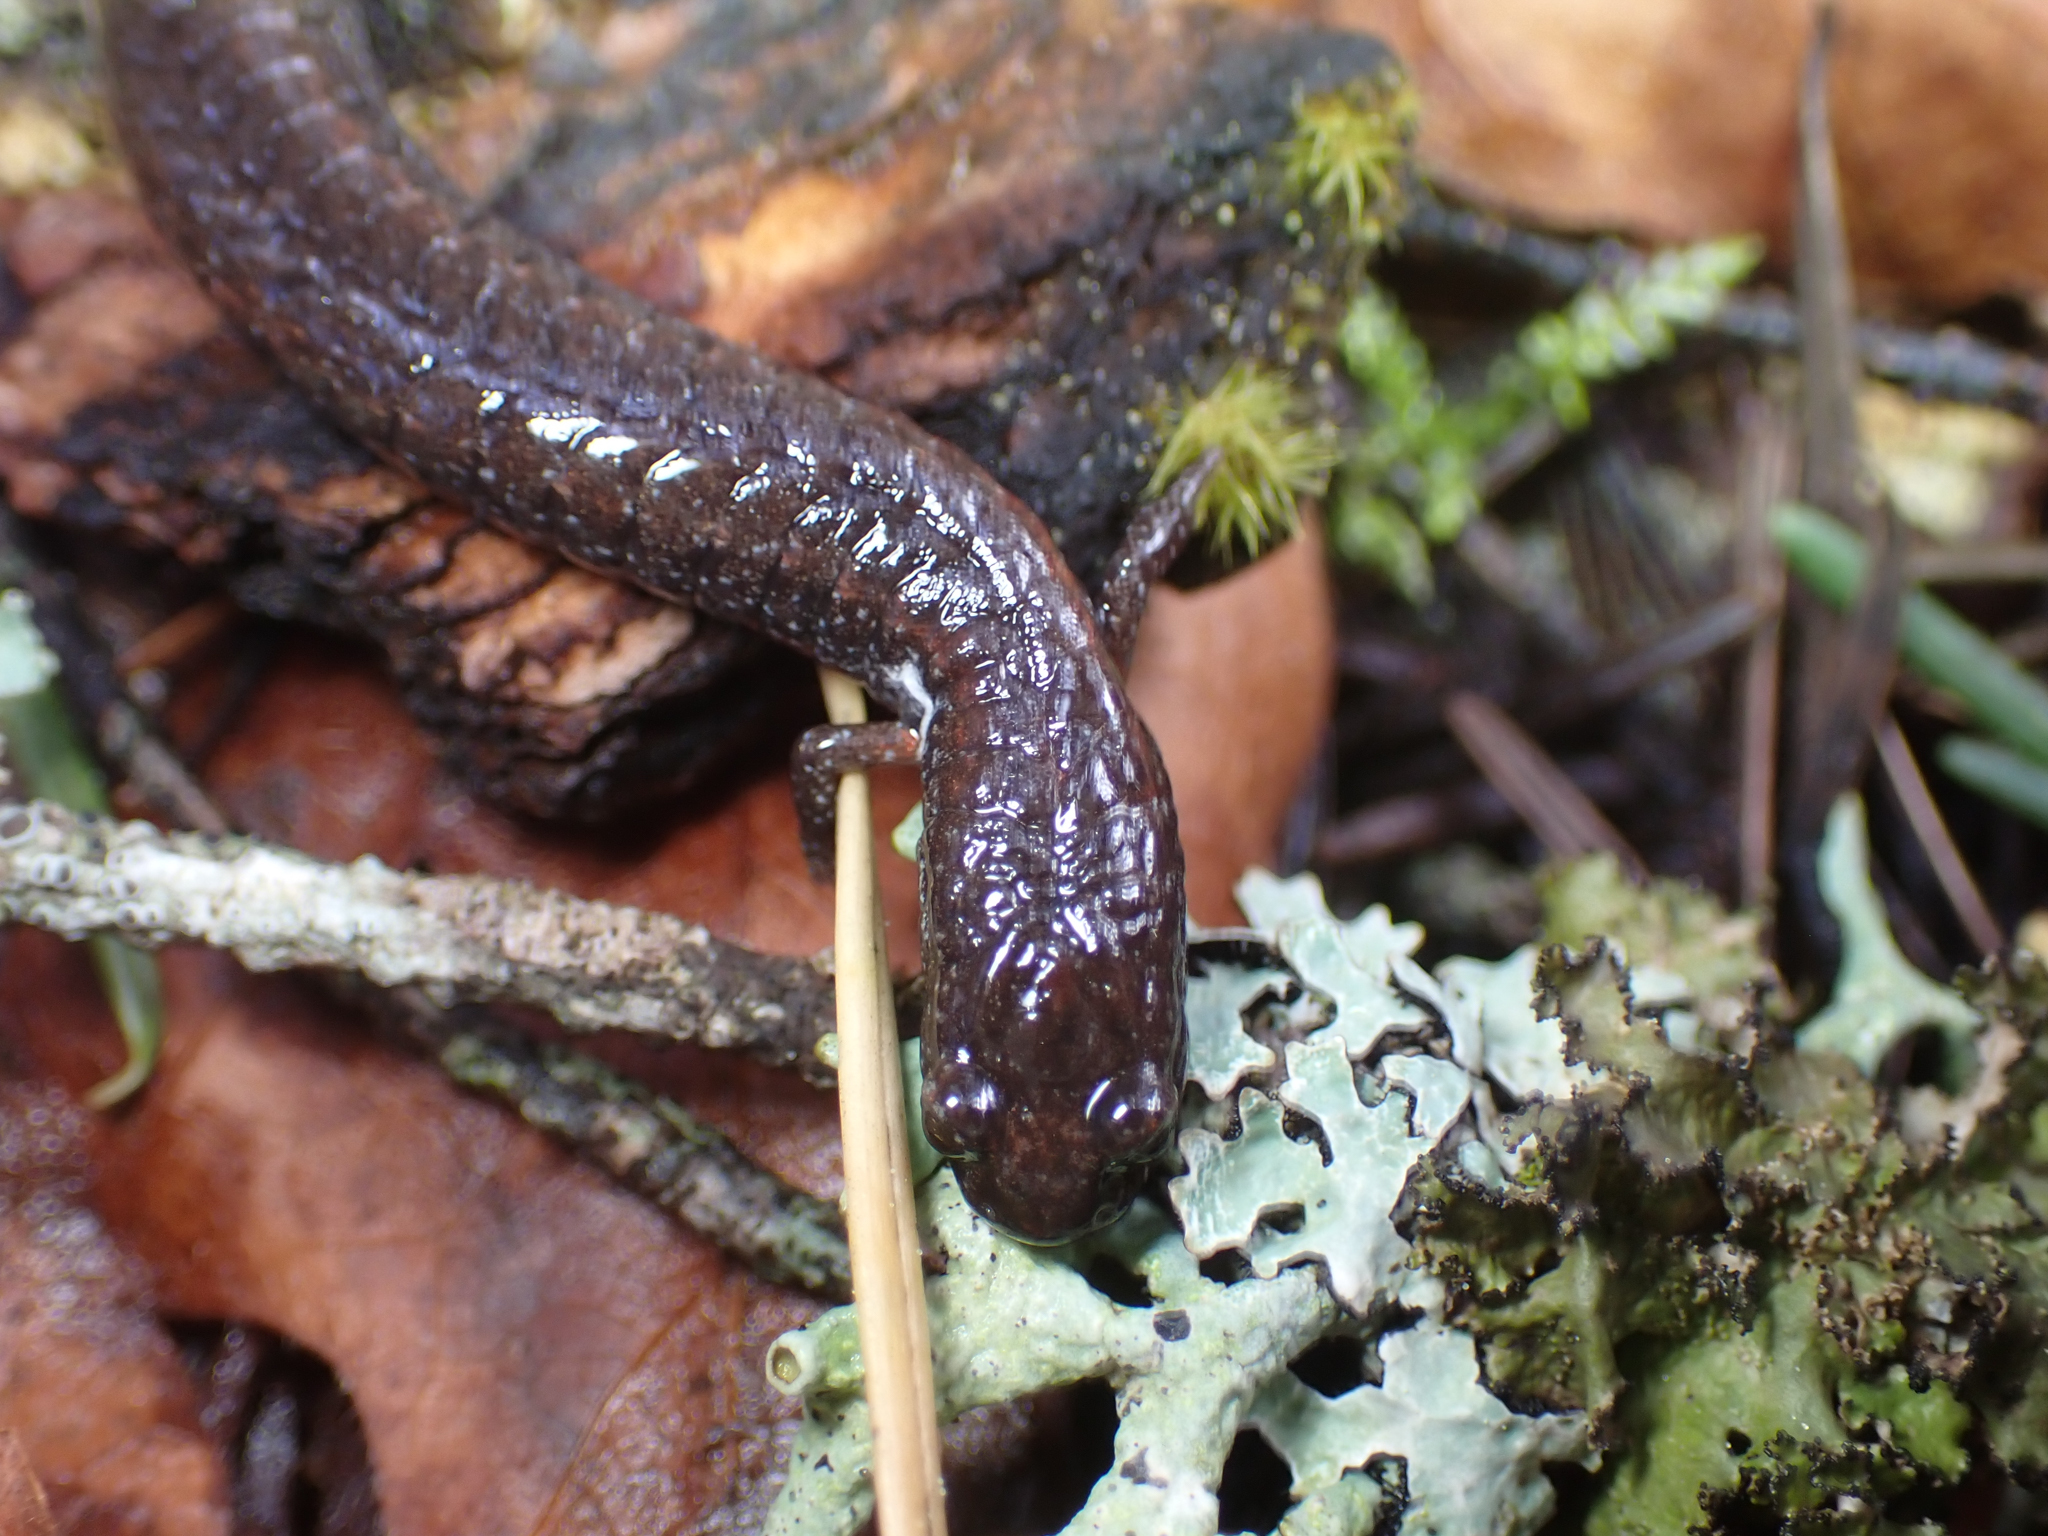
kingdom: Animalia
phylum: Chordata
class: Amphibia
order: Caudata
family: Plethodontidae
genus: Batrachoseps
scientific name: Batrachoseps attenuatus
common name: California slender salamander
